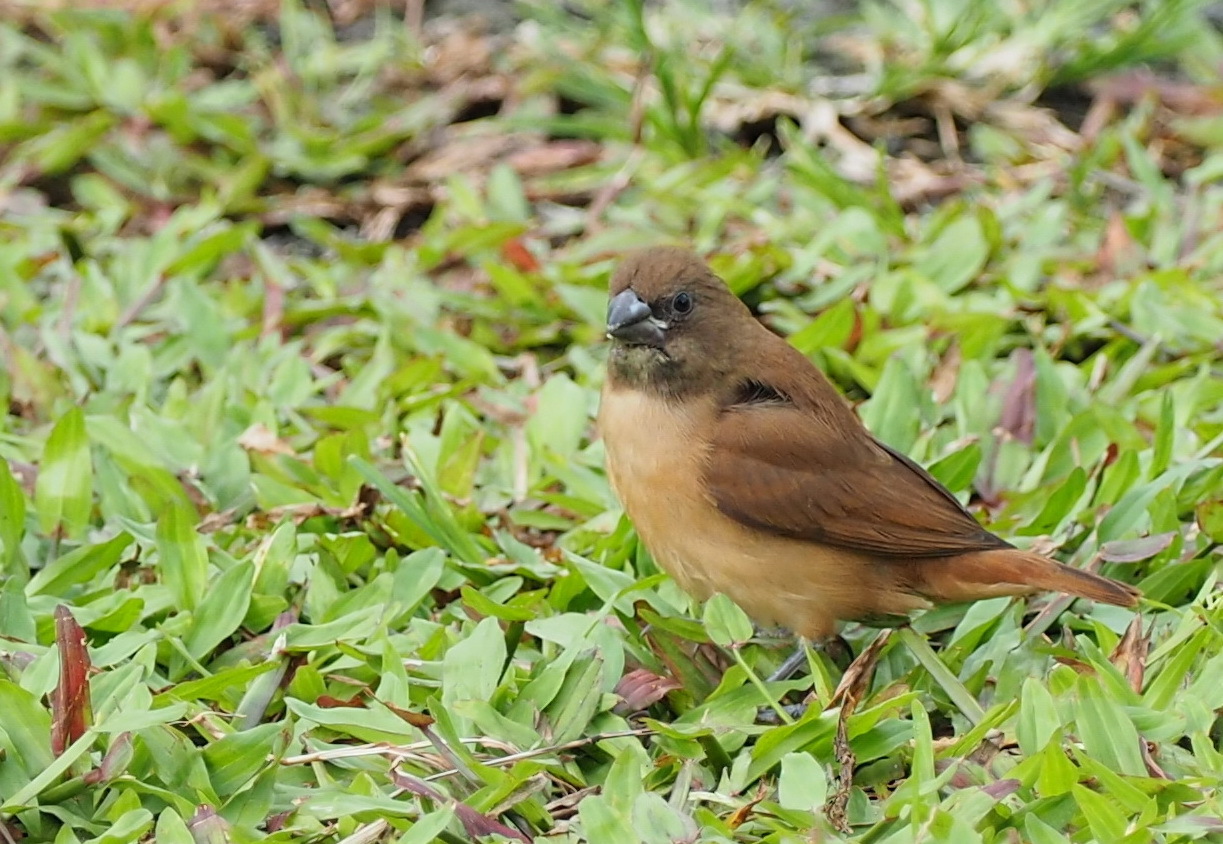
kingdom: Animalia
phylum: Chordata
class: Aves
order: Passeriformes
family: Estrildidae
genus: Lonchura
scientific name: Lonchura atricapilla
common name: Chestnut munia
